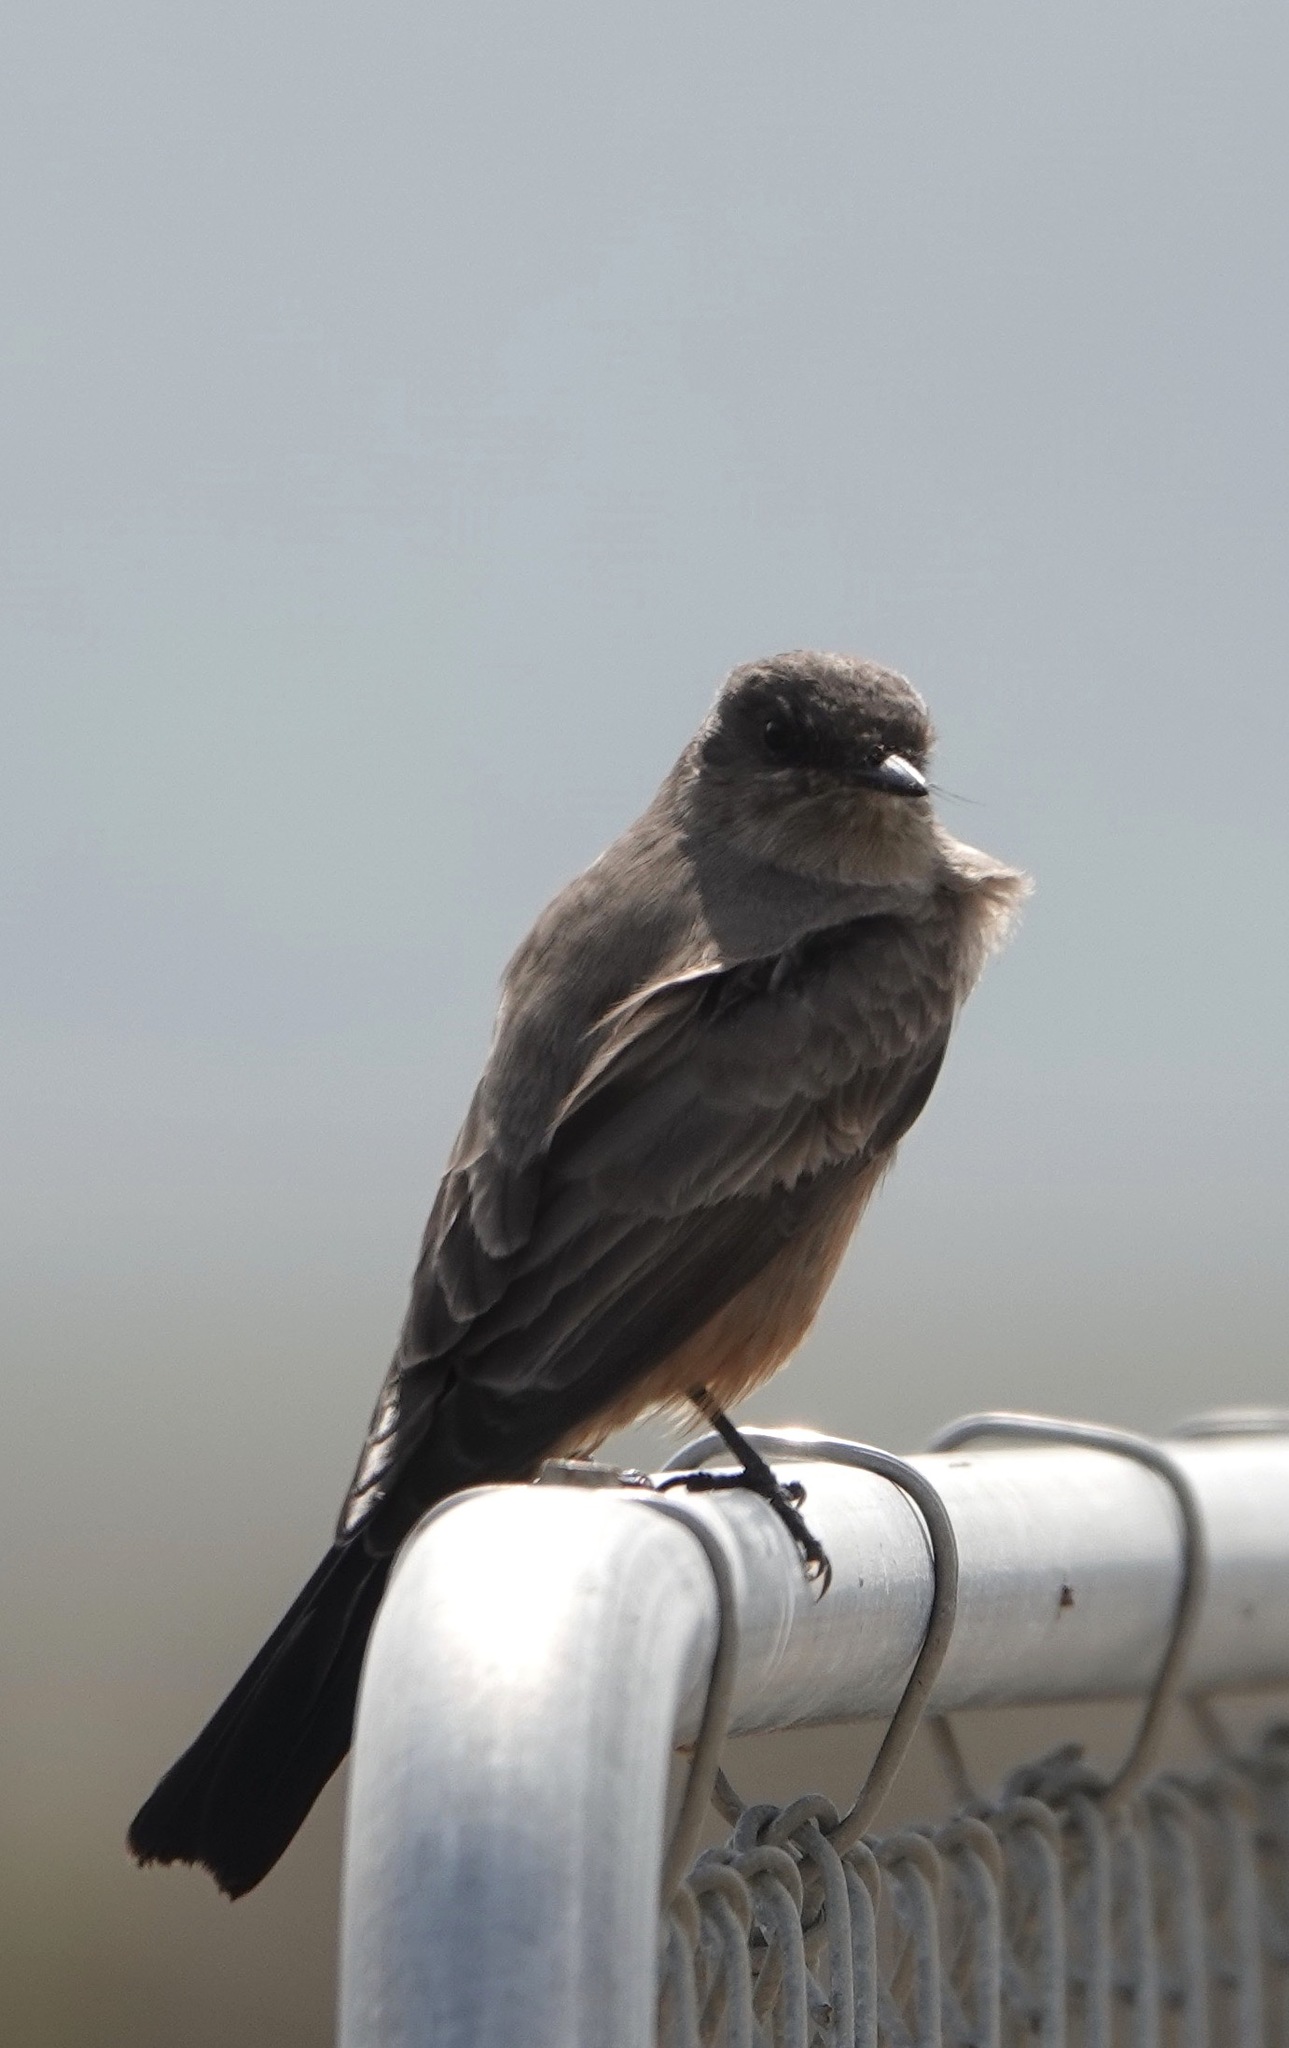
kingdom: Animalia
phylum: Chordata
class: Aves
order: Passeriformes
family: Tyrannidae
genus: Sayornis
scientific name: Sayornis saya
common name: Say's phoebe
